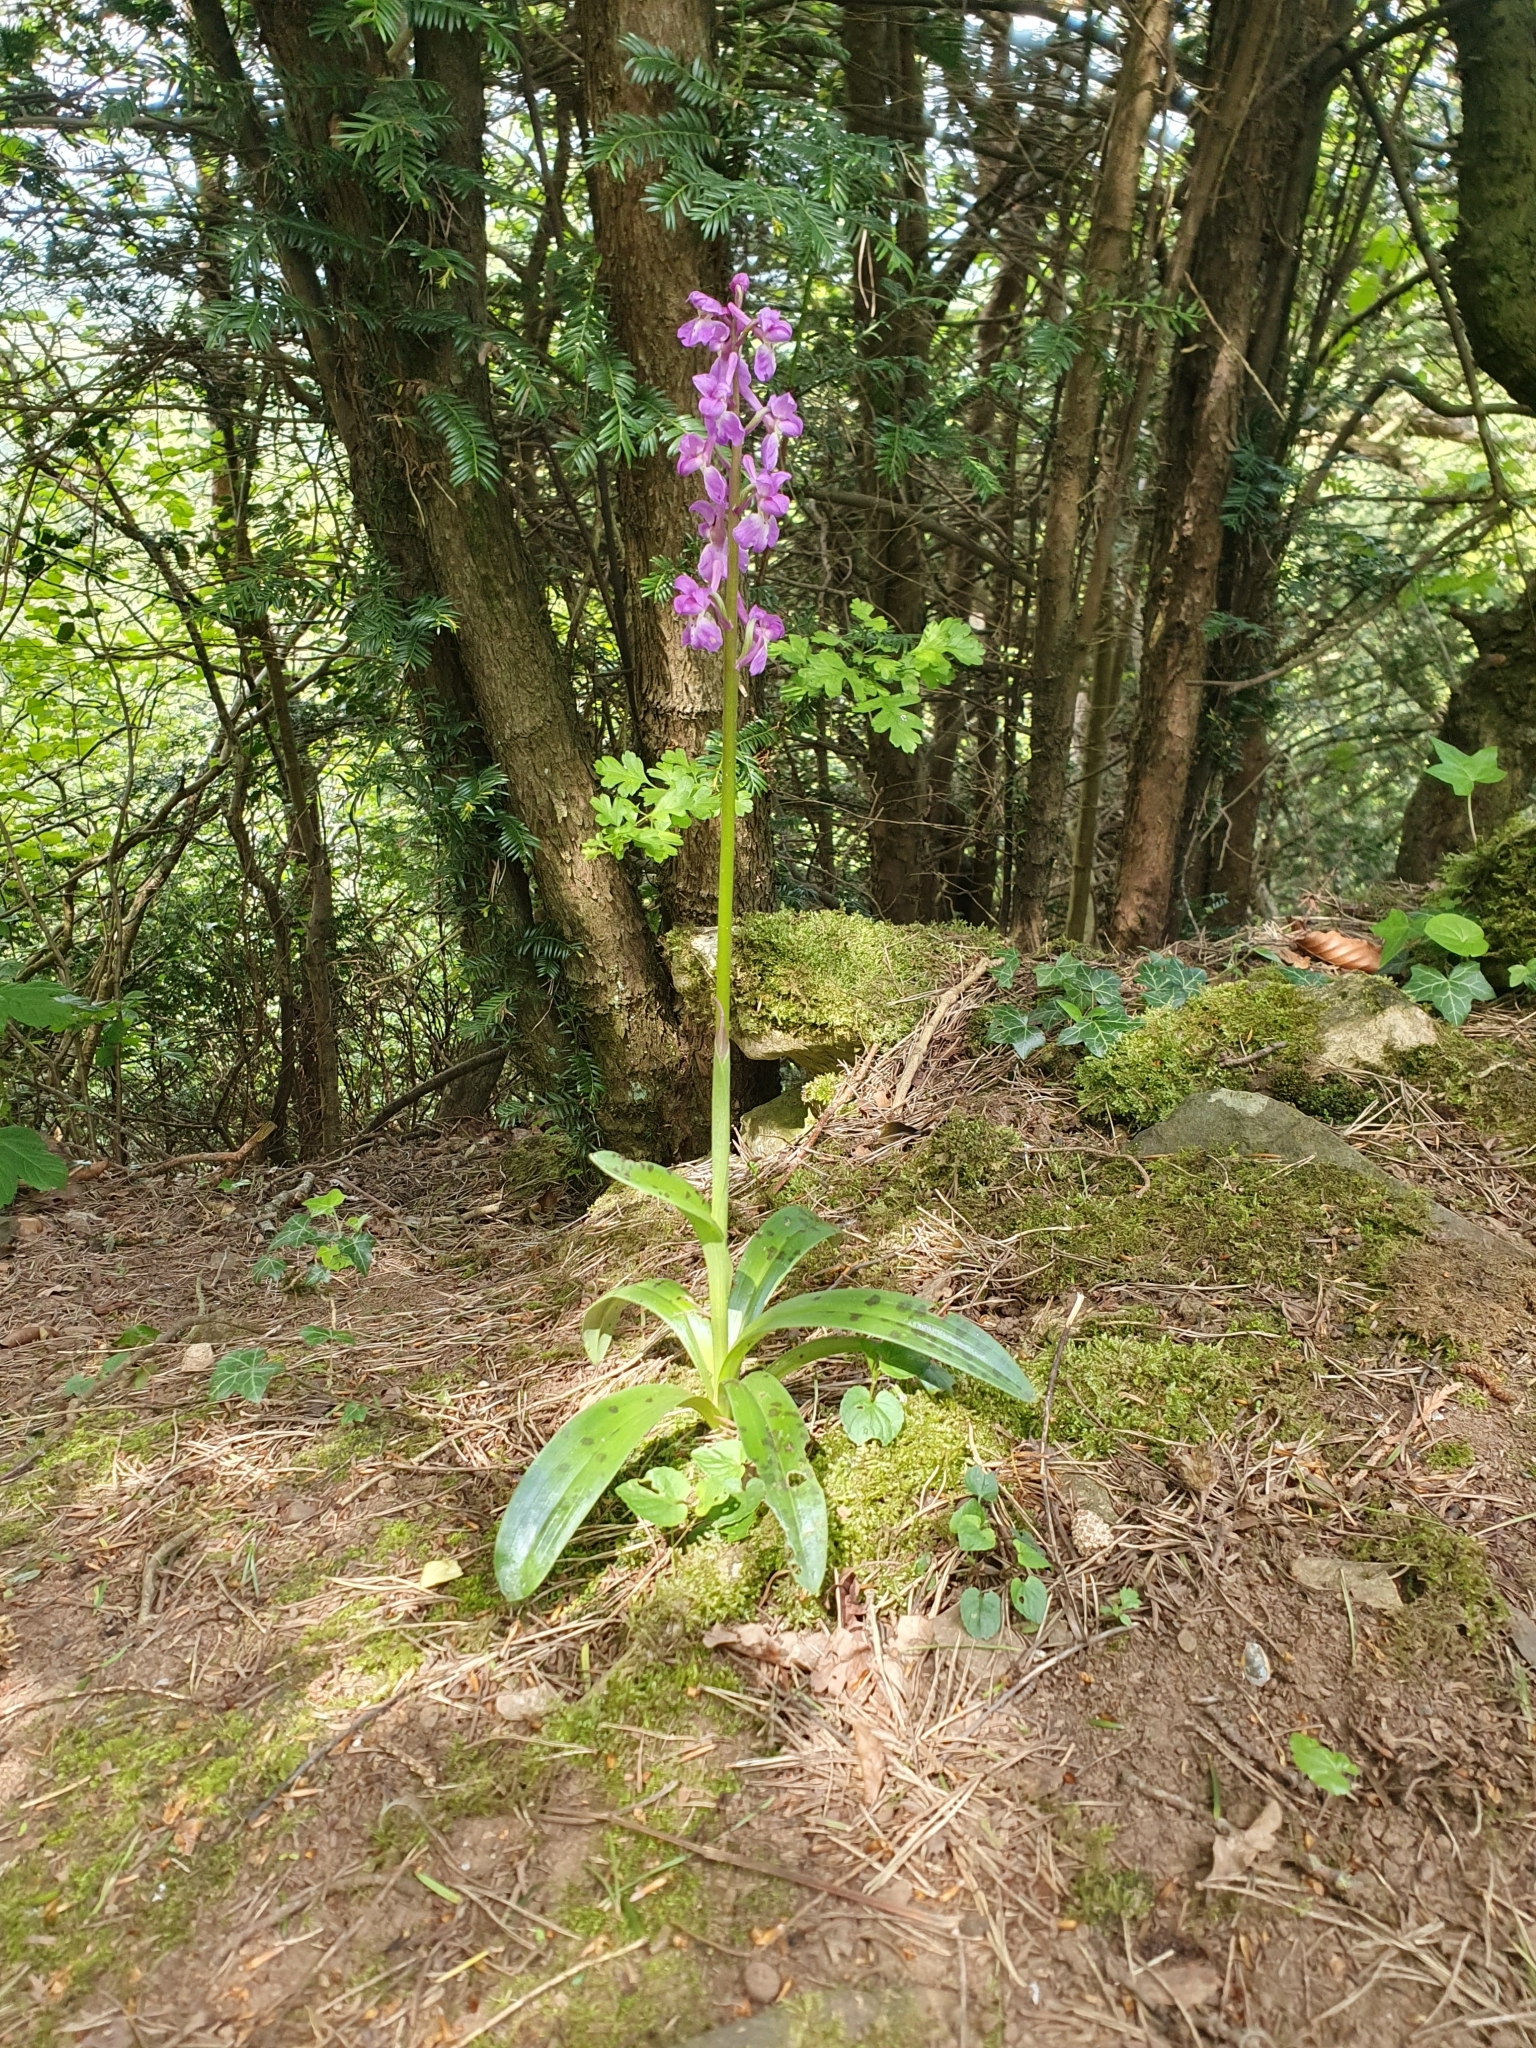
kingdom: Plantae
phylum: Tracheophyta
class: Liliopsida
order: Asparagales
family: Orchidaceae
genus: Orchis
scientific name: Orchis mascula
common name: Early-purple orchid
